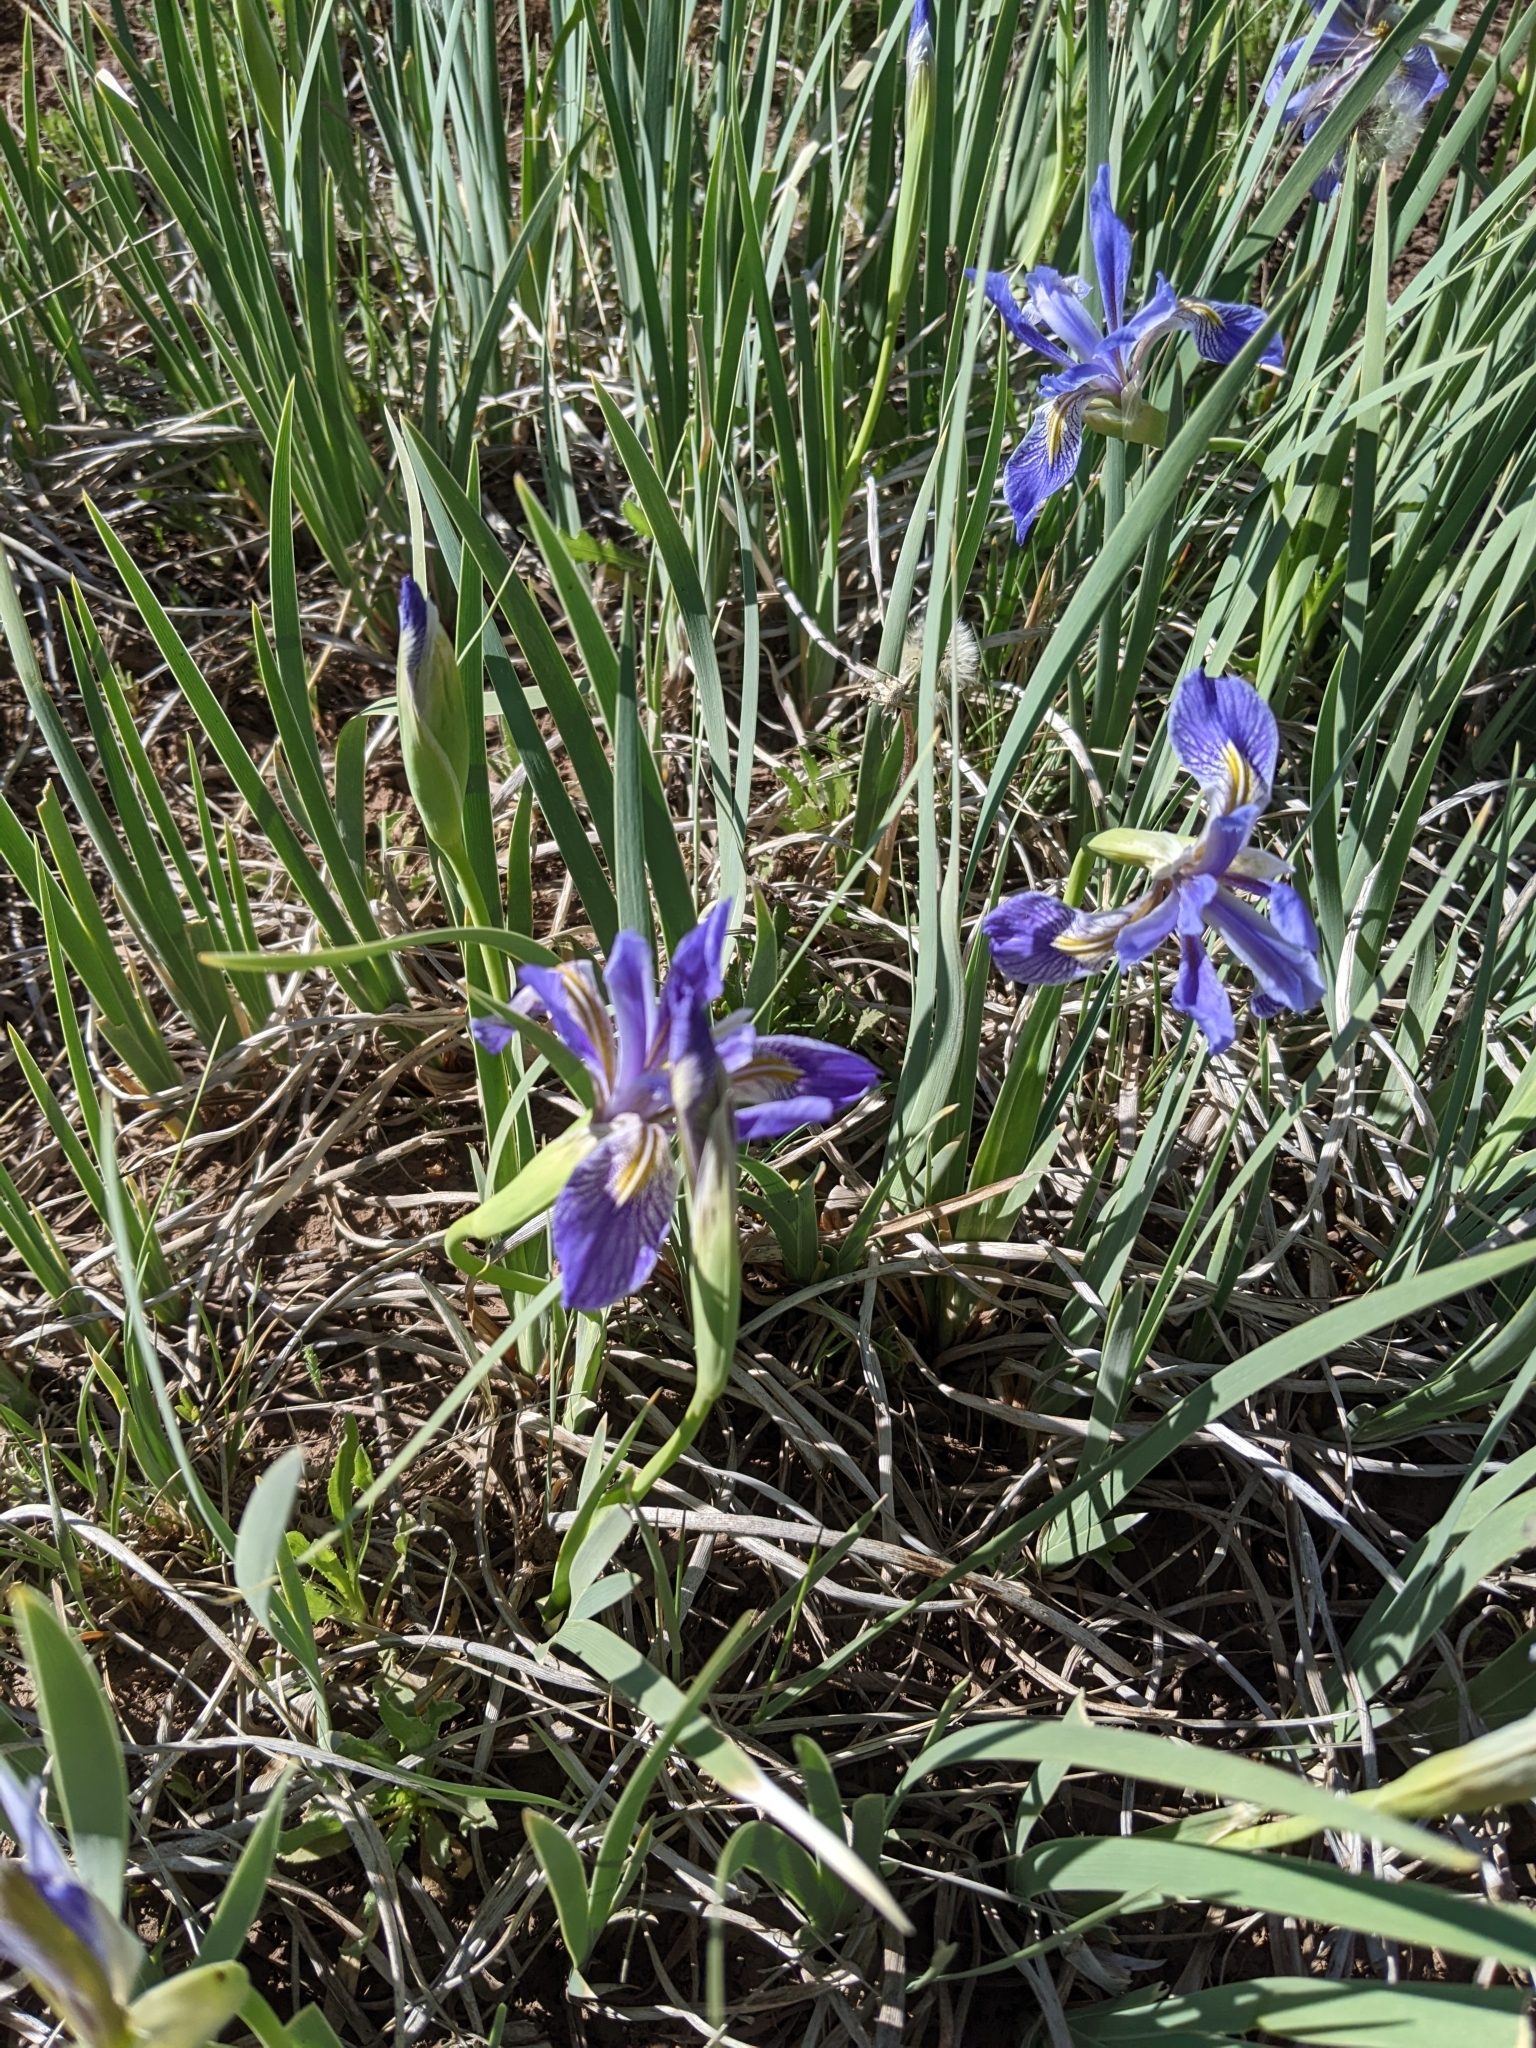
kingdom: Plantae
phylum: Tracheophyta
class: Liliopsida
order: Asparagales
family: Iridaceae
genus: Iris
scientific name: Iris missouriensis
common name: Rocky mountain iris
